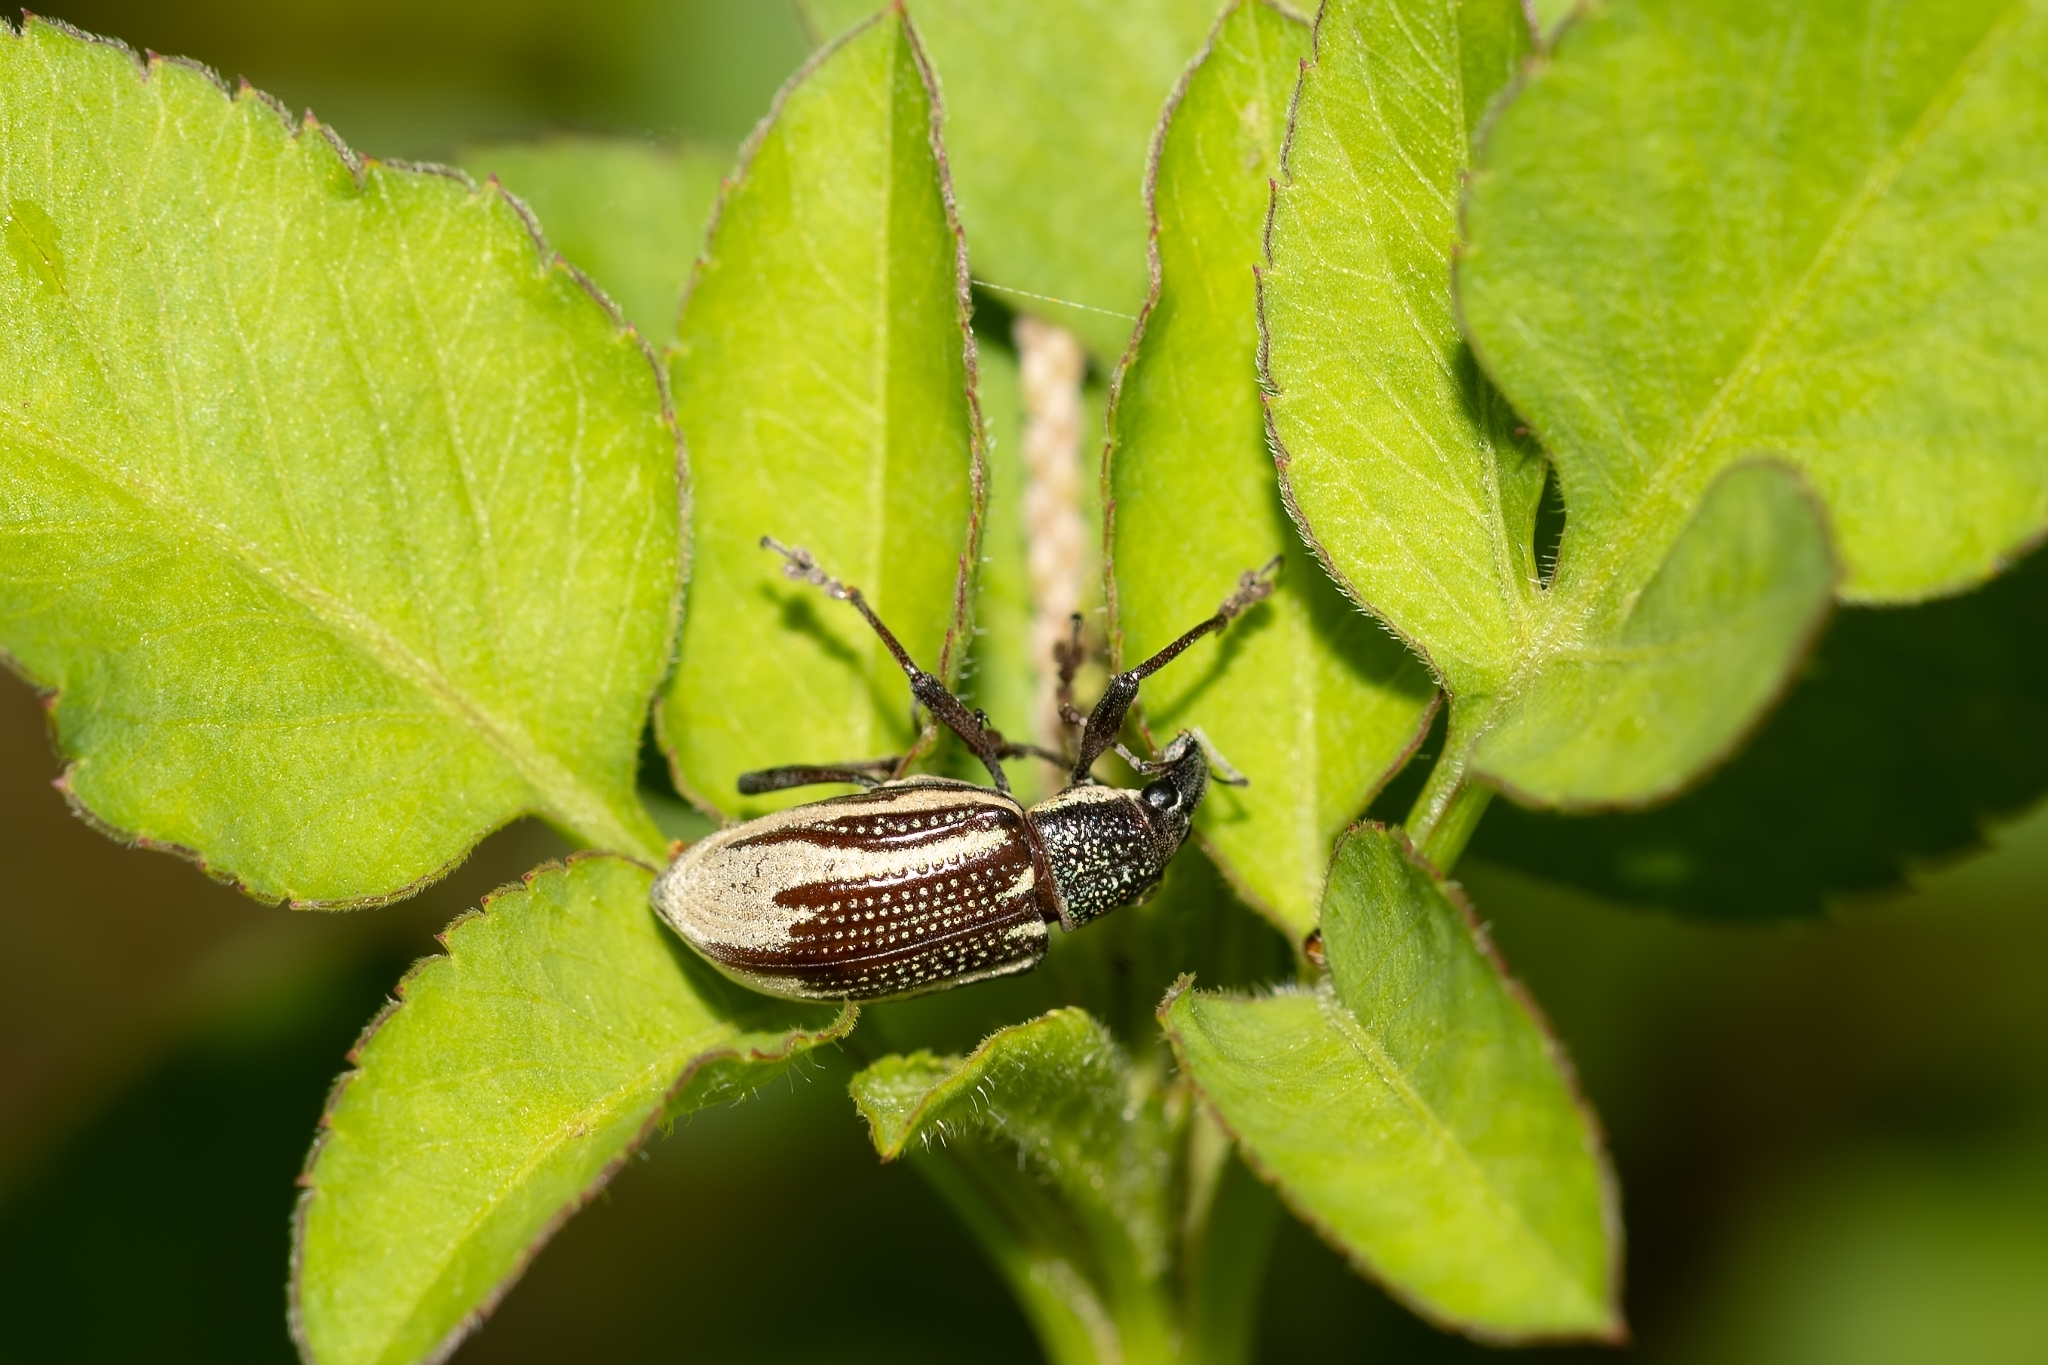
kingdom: Animalia
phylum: Arthropoda
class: Insecta
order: Coleoptera
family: Curculionidae
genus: Diaprepes
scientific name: Diaprepes abbreviatus
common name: Root weevil
